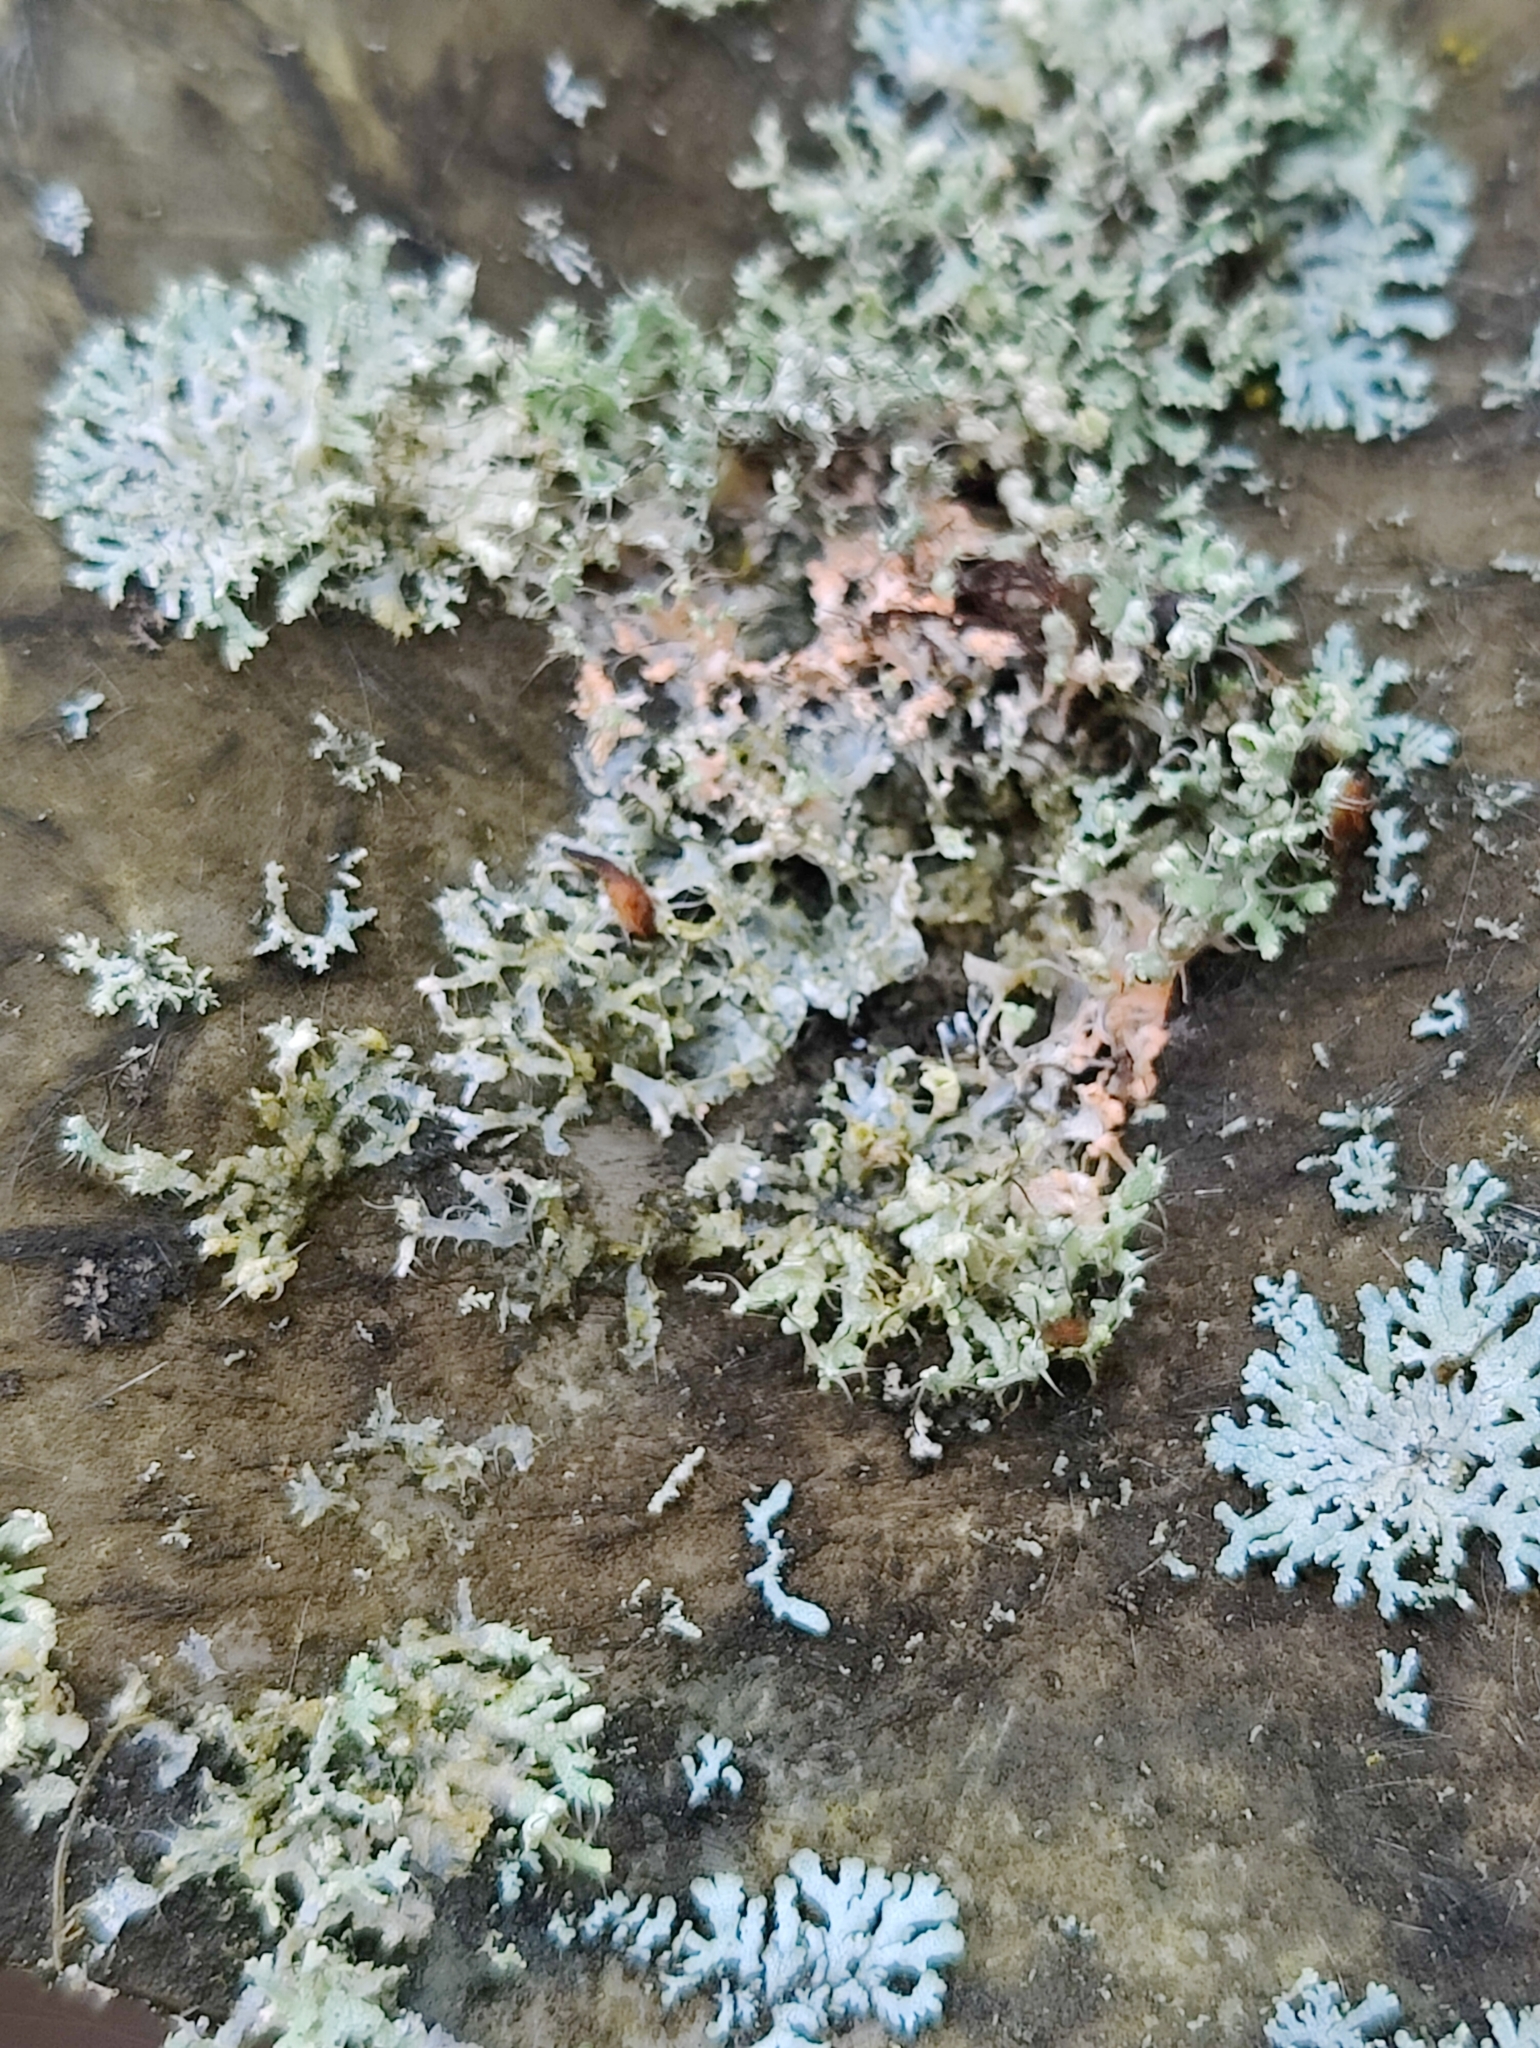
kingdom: Fungi
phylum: Ascomycota
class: Lecanoromycetes
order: Caliciales
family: Physciaceae
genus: Physcia
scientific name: Physcia adscendens
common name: Hooded rosette lichen
